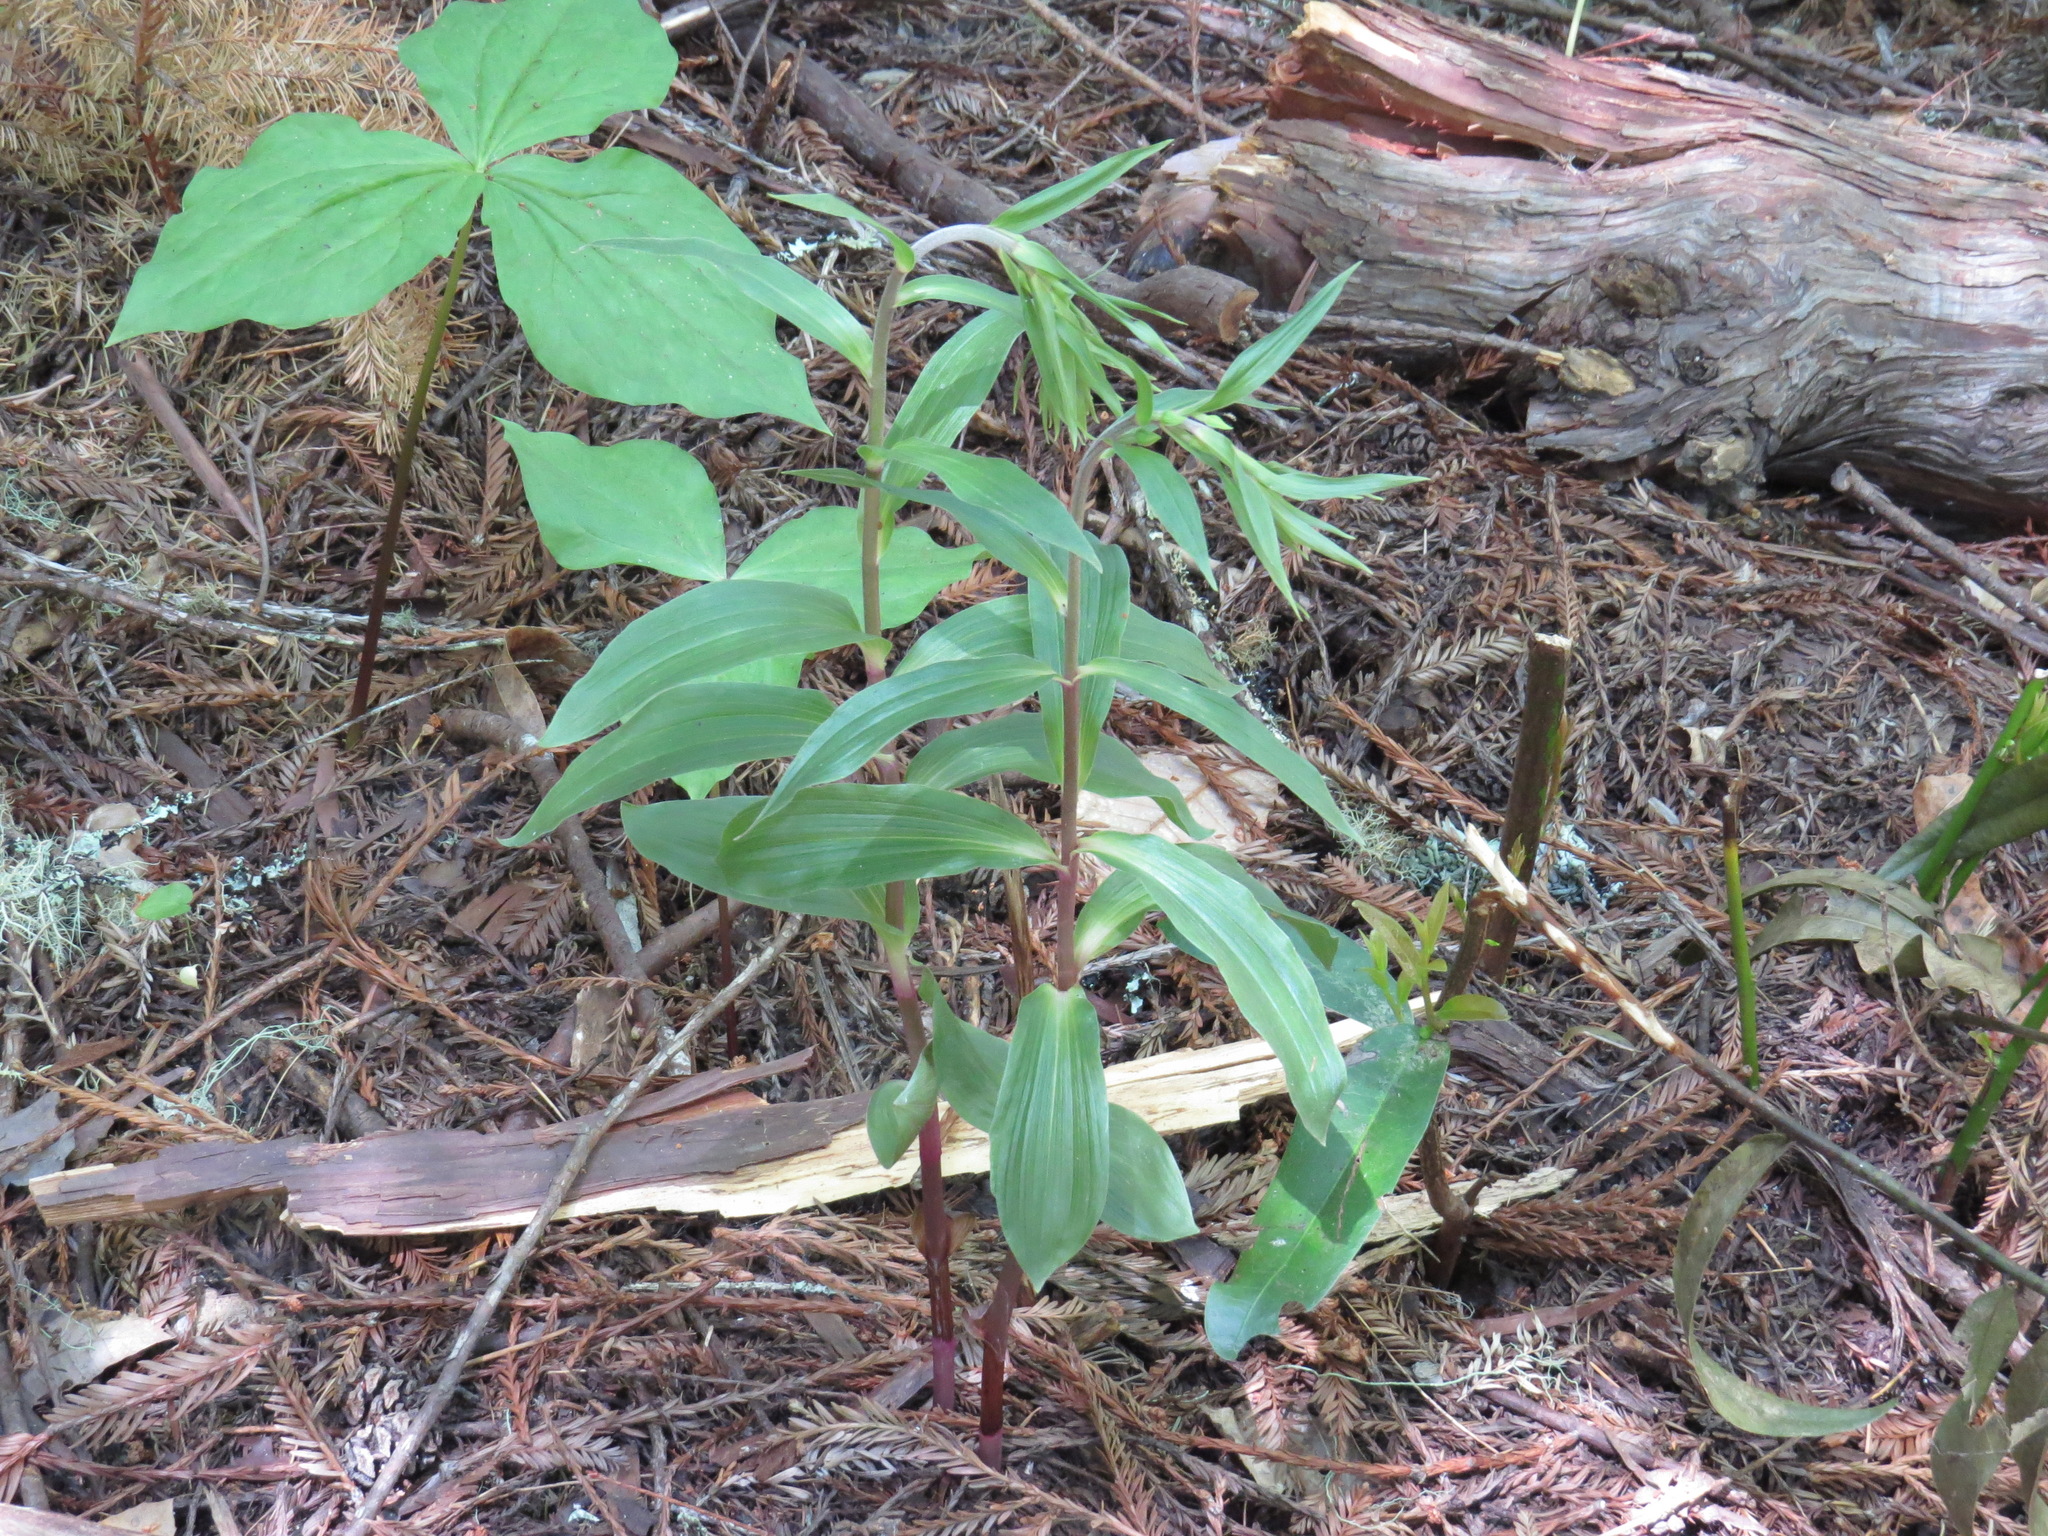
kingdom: Plantae
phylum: Tracheophyta
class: Liliopsida
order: Asparagales
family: Orchidaceae
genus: Epipactis
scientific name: Epipactis helleborine
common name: Broad-leaved helleborine
